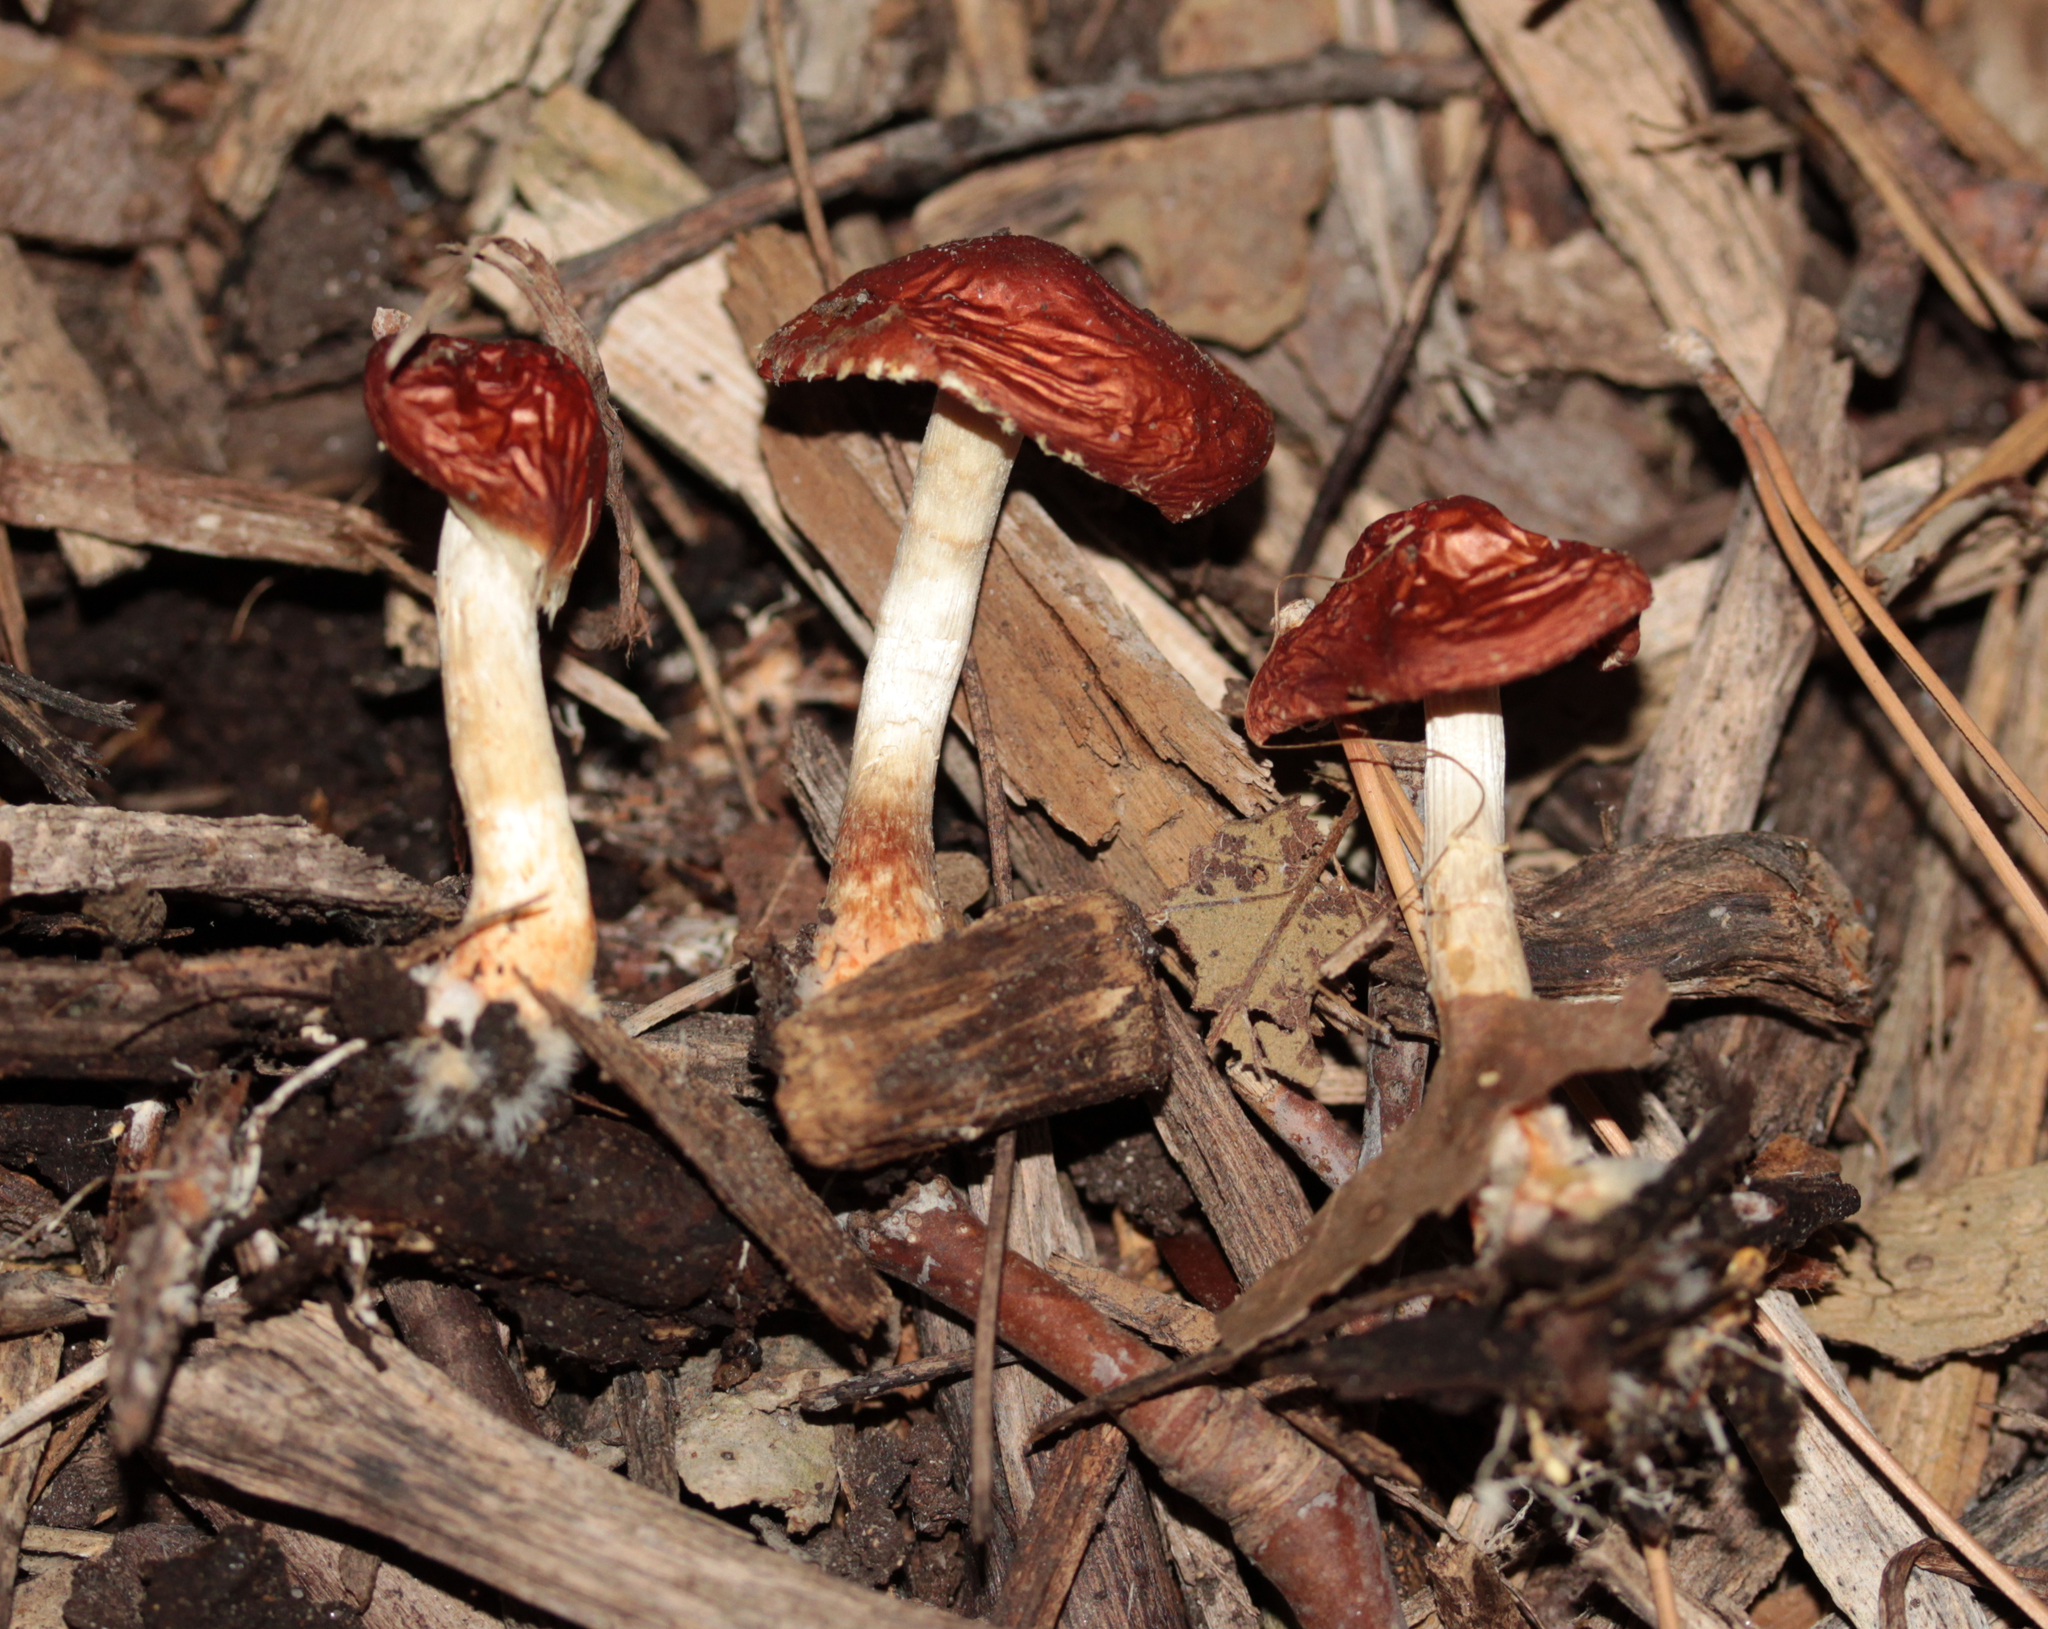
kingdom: Fungi
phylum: Basidiomycota
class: Agaricomycetes
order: Agaricales
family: Strophariaceae
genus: Leratiomyces
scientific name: Leratiomyces ceres
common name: Redlead roundhead
